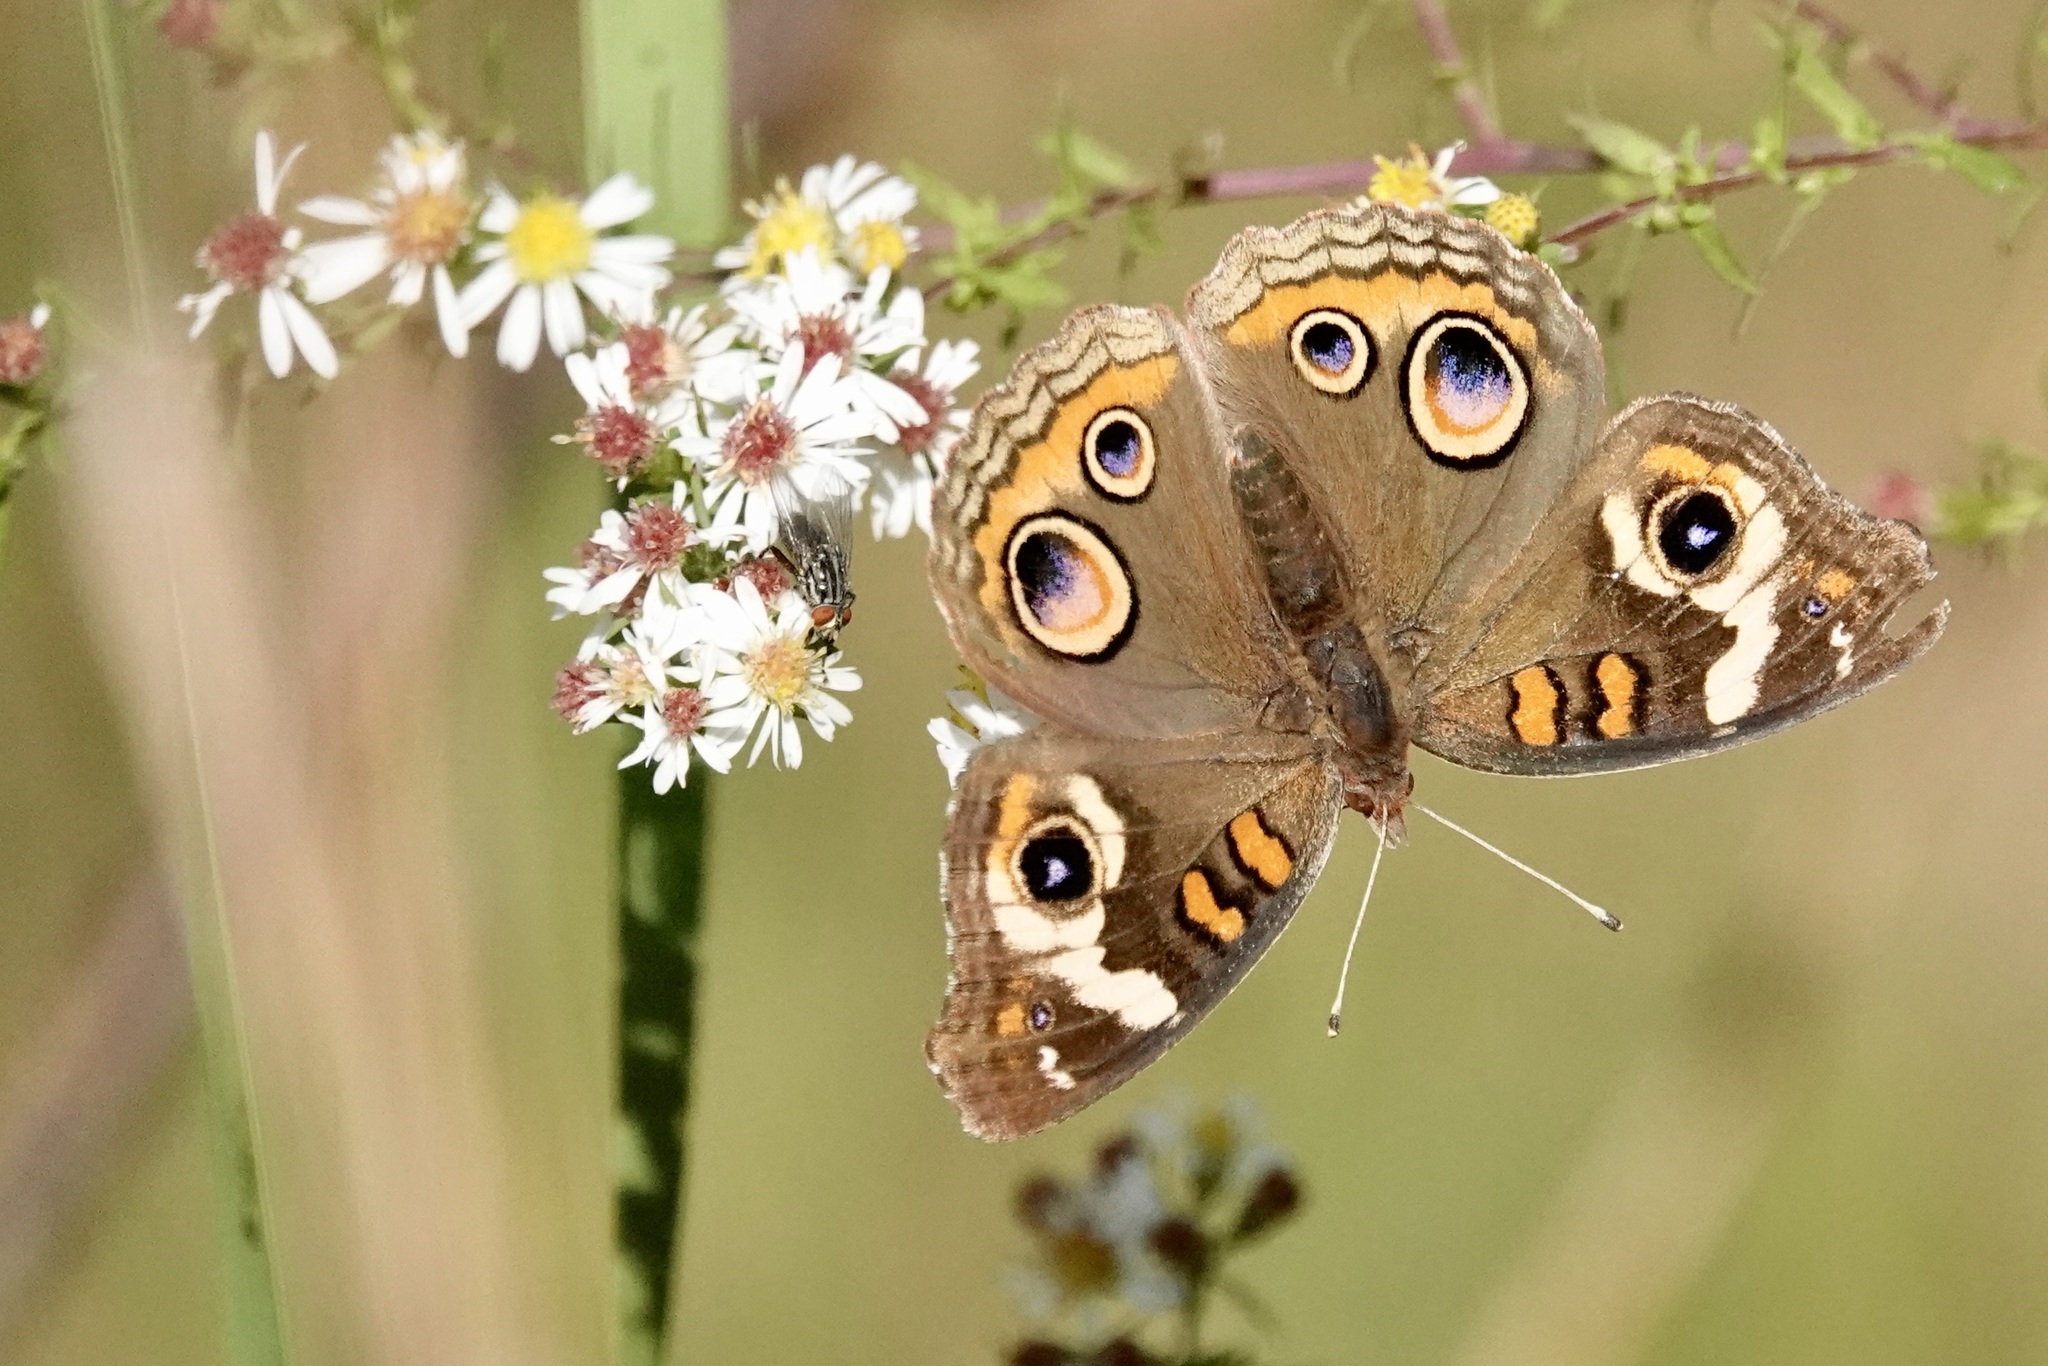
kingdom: Animalia
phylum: Arthropoda
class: Insecta
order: Lepidoptera
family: Nymphalidae
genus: Junonia
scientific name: Junonia coenia
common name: Common buckeye
